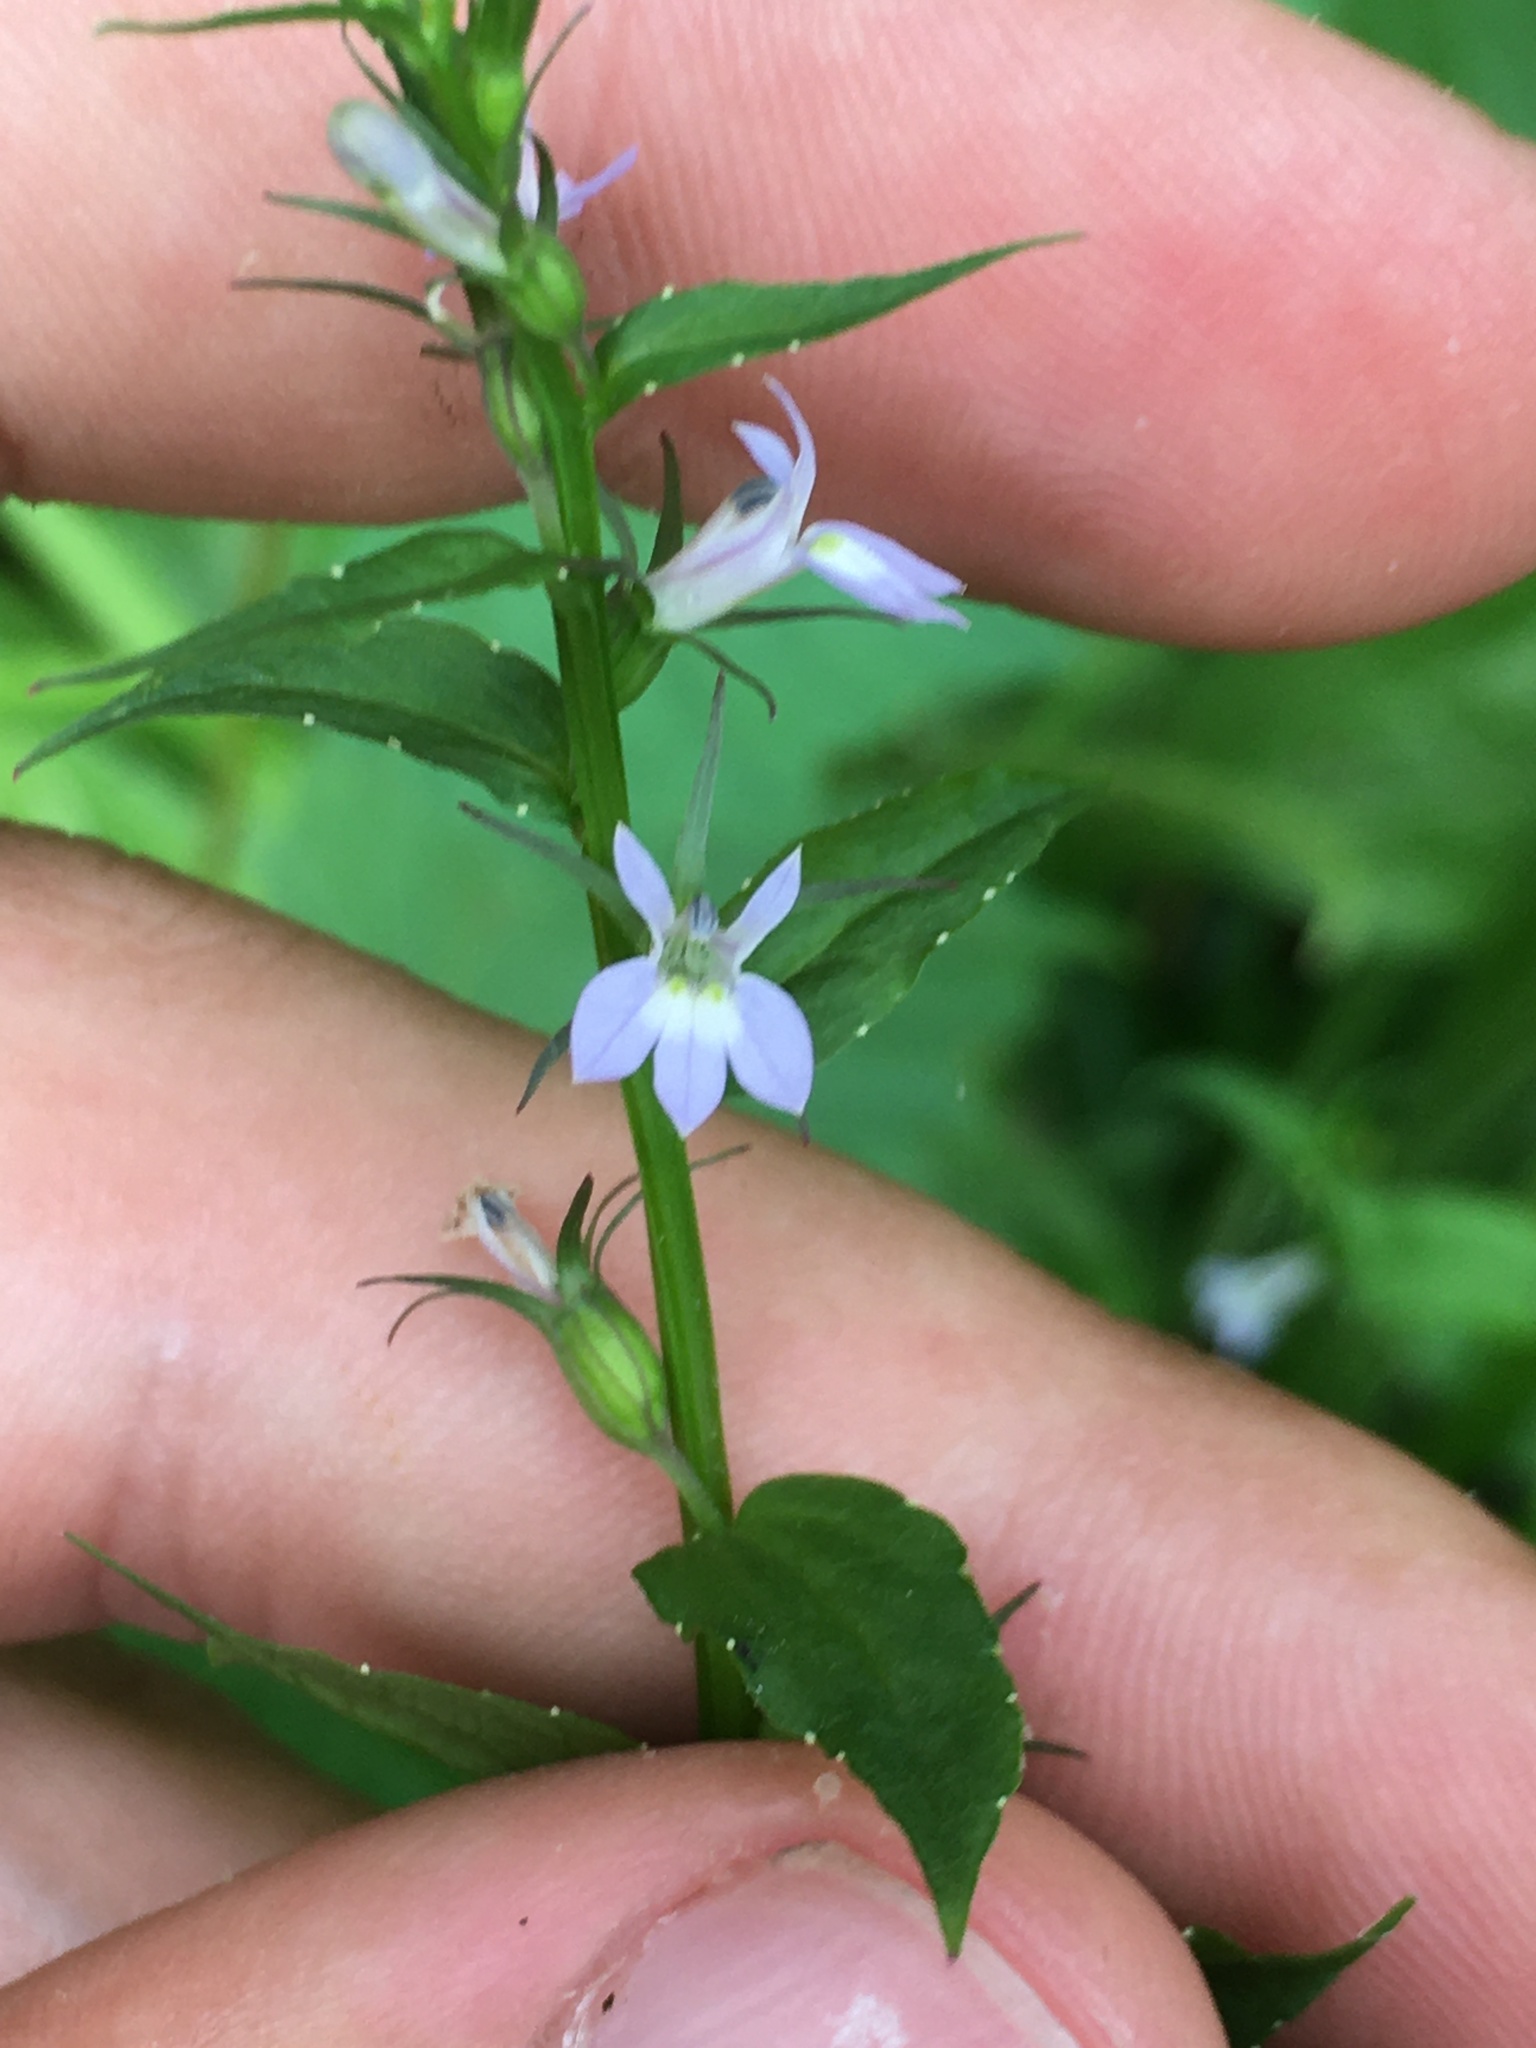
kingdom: Plantae
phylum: Tracheophyta
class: Magnoliopsida
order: Asterales
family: Campanulaceae
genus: Lobelia
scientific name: Lobelia inflata
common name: Indian tobacco
